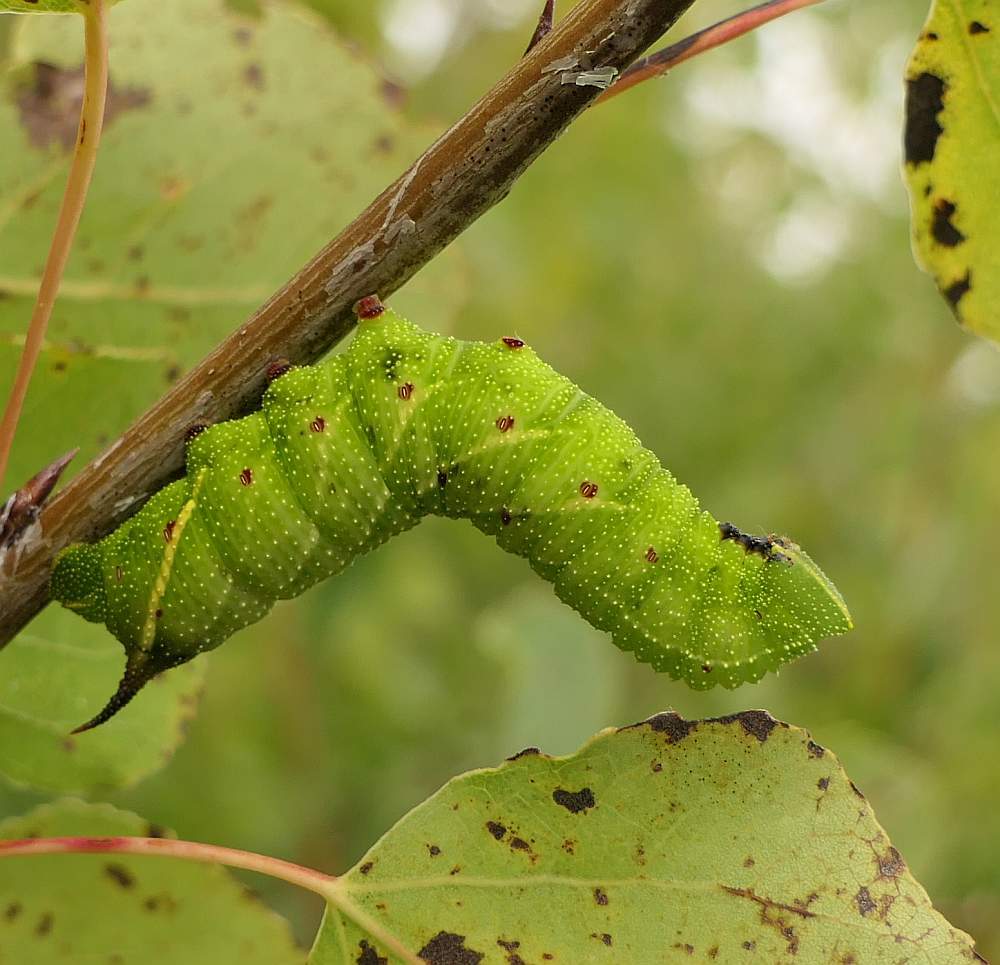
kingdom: Animalia
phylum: Arthropoda
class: Insecta
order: Lepidoptera
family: Sphingidae
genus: Paonias
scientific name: Paonias excaecata
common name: Blind-eyed sphinx
